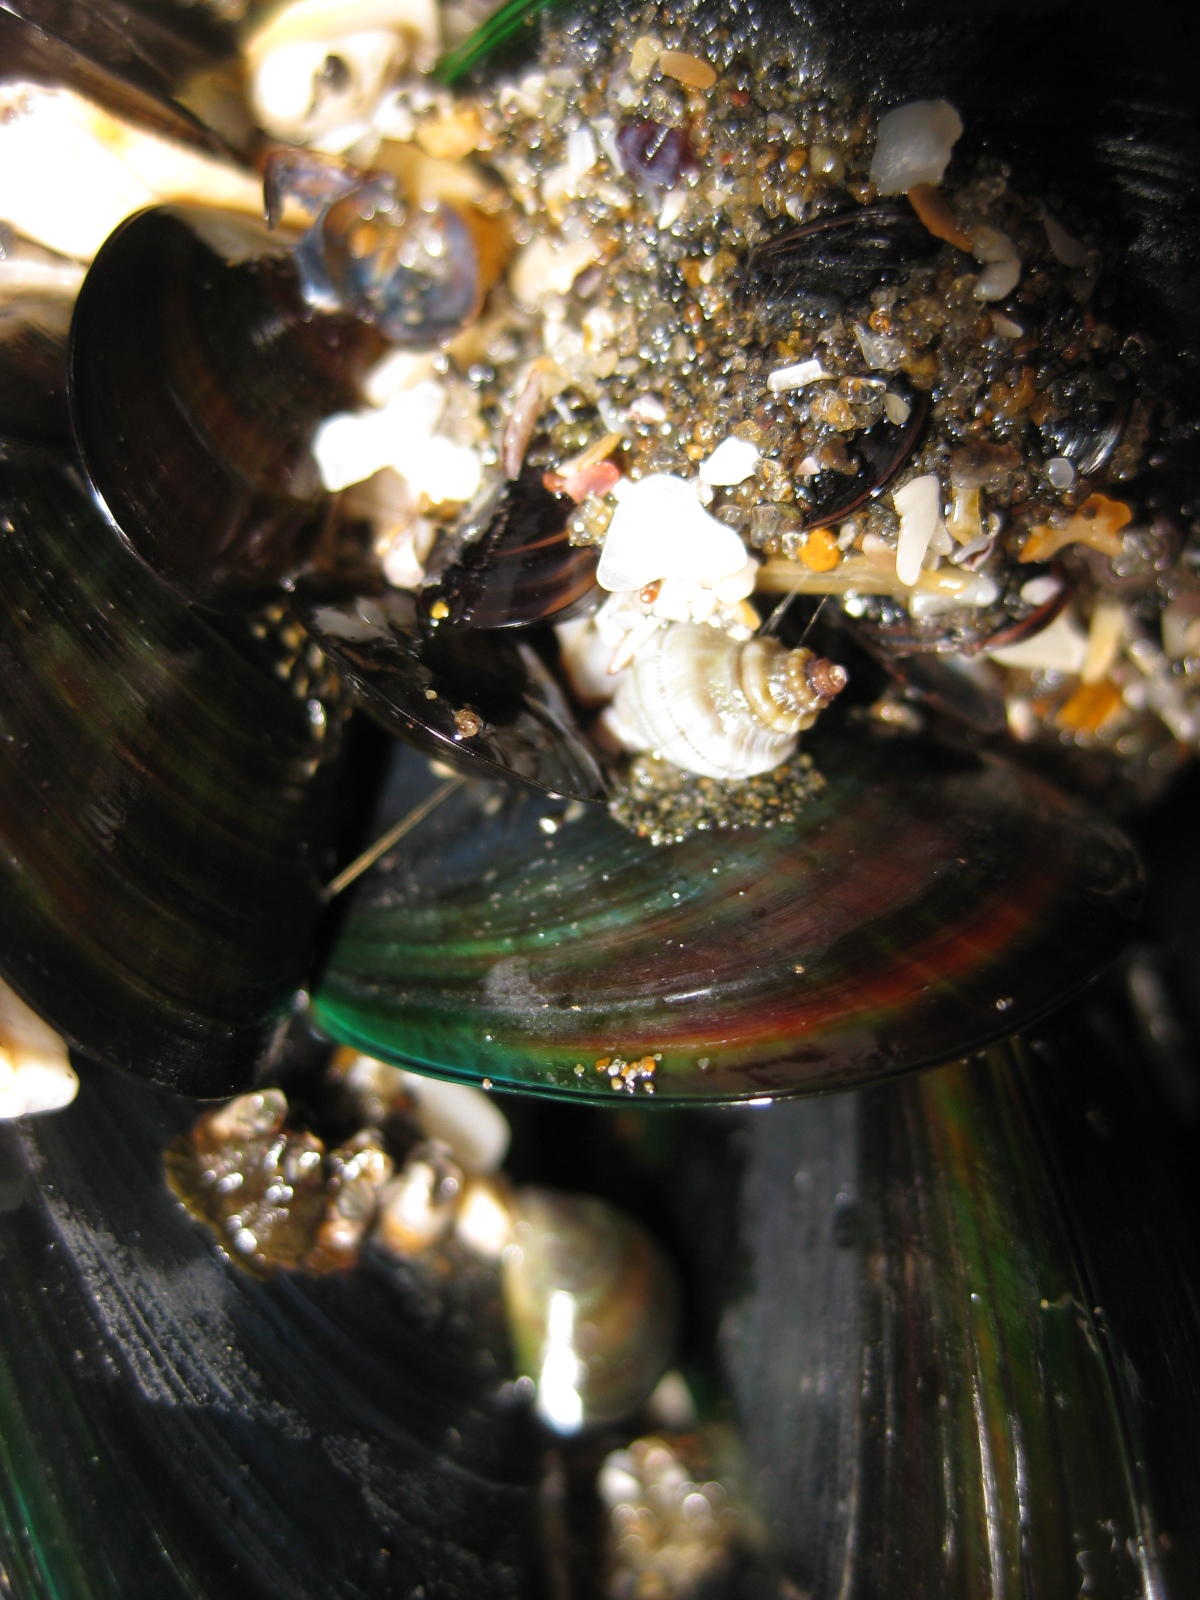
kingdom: Animalia
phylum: Mollusca
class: Bivalvia
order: Mytilida
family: Mytilidae
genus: Perna
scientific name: Perna canaliculus
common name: New zealand greenshelltm
